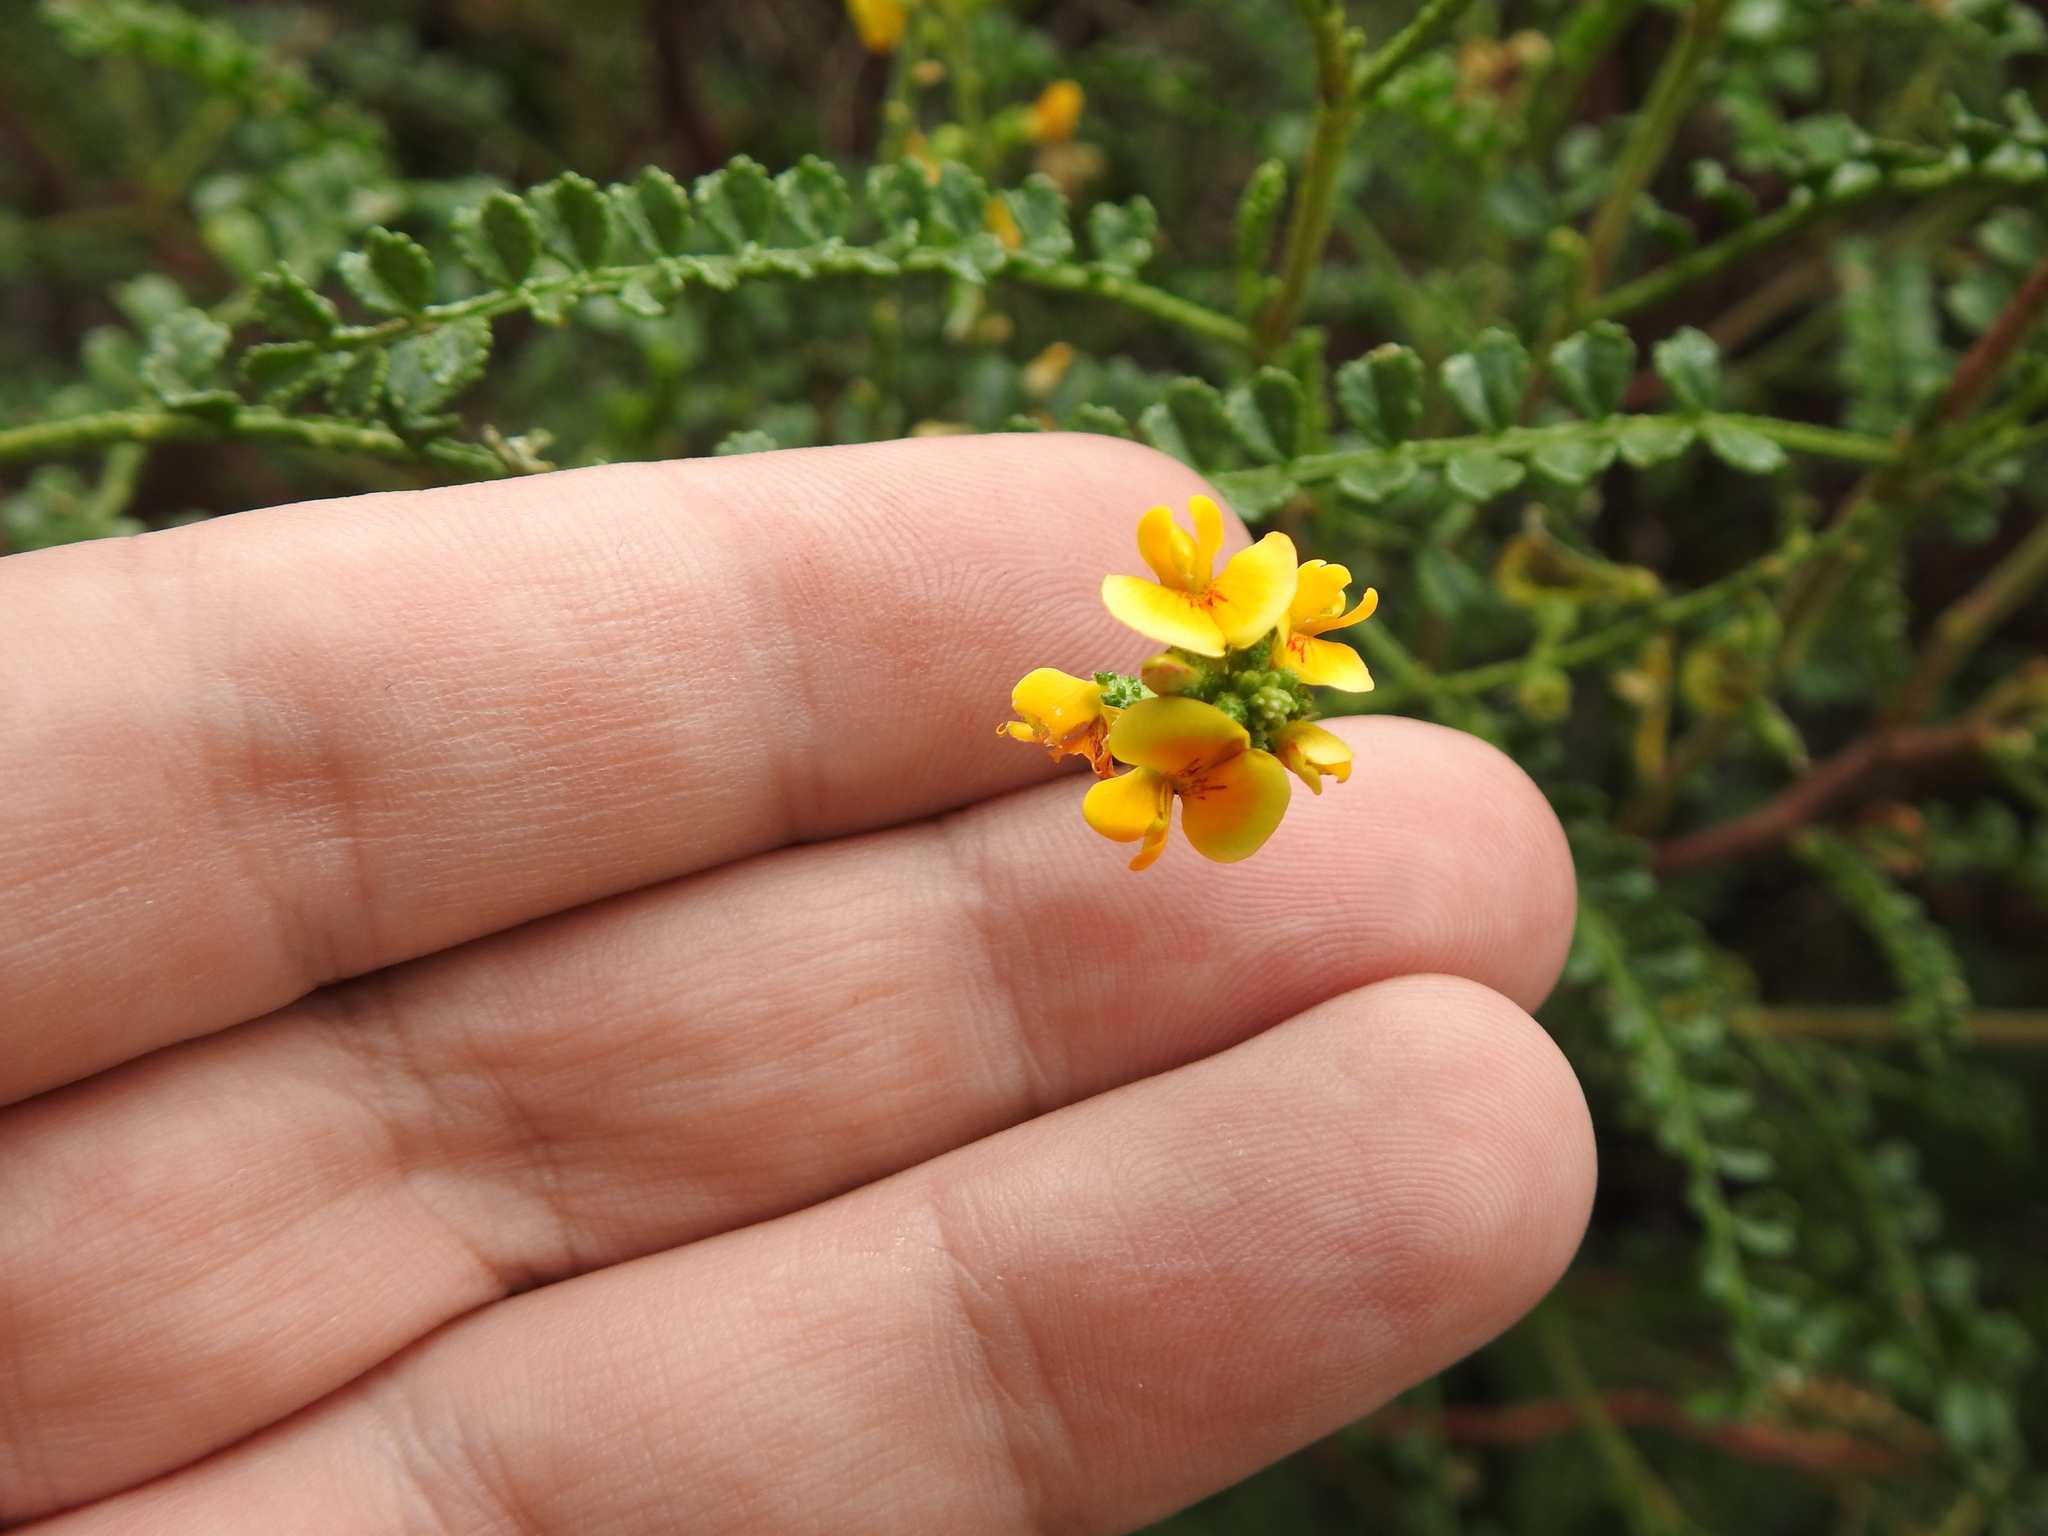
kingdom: Plantae
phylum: Tracheophyta
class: Magnoliopsida
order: Fabales
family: Fabaceae
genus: Adesmia
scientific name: Adesmia boronioides
